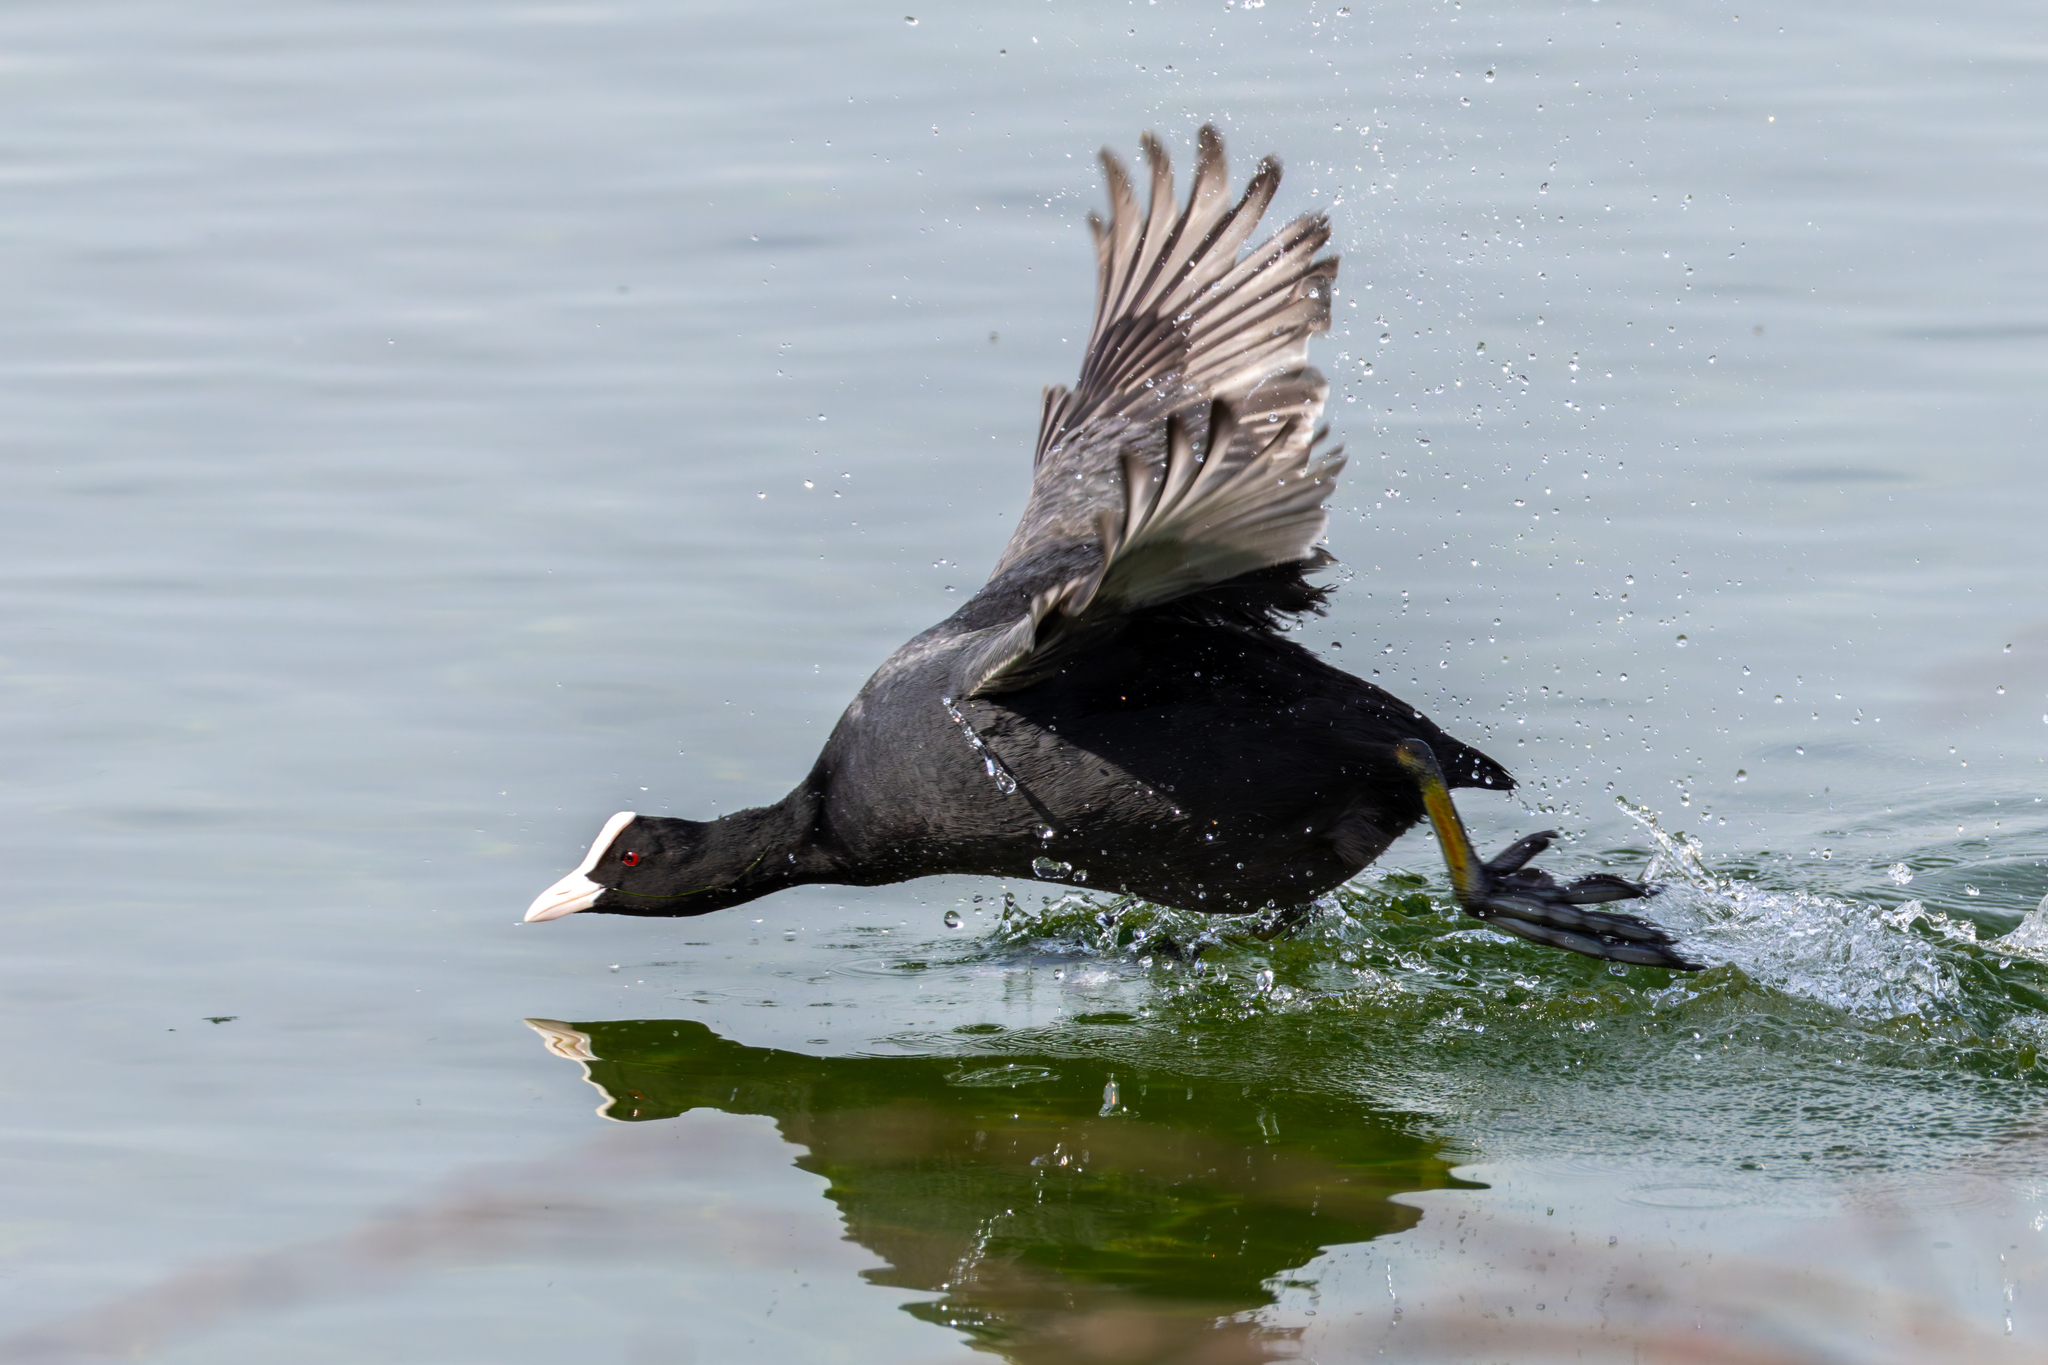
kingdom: Animalia
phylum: Chordata
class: Aves
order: Gruiformes
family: Rallidae
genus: Fulica
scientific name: Fulica atra
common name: Eurasian coot
